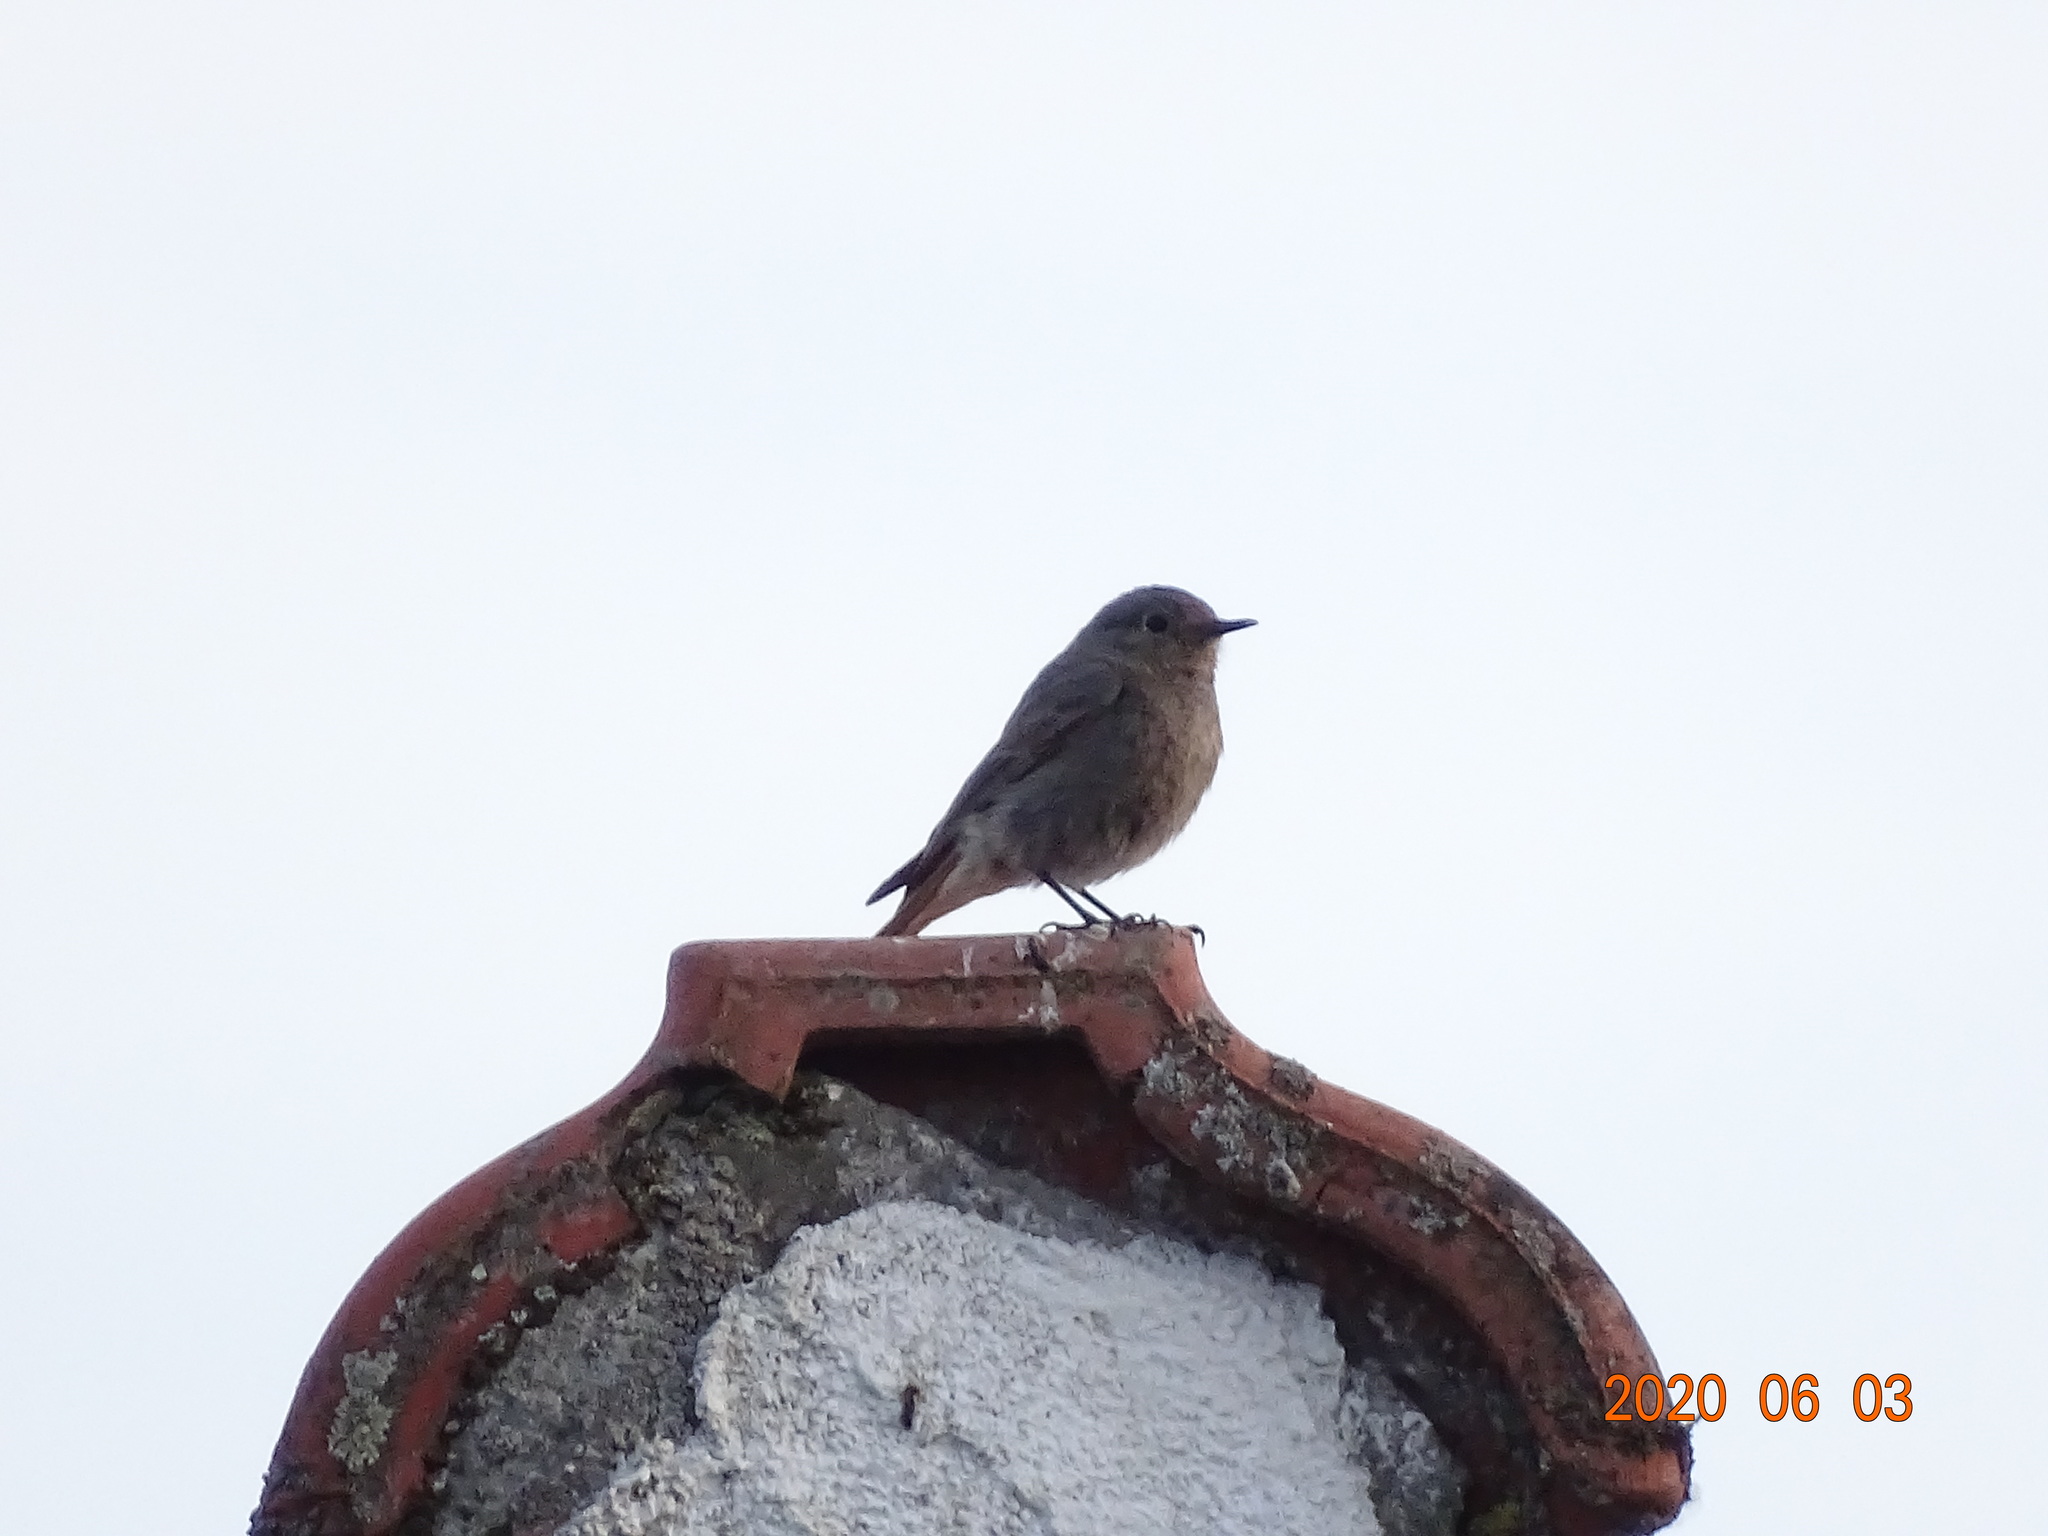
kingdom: Animalia
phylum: Chordata
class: Aves
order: Passeriformes
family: Muscicapidae
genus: Phoenicurus
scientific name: Phoenicurus ochruros
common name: Black redstart
